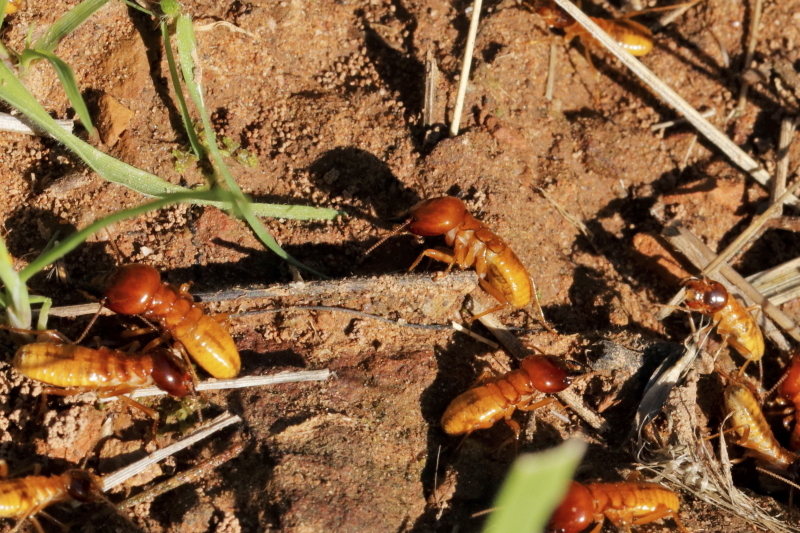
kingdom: Animalia
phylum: Arthropoda
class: Insecta
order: Blattodea
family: Hodotermitidae
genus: Microhodotermes
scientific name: Microhodotermes viator
